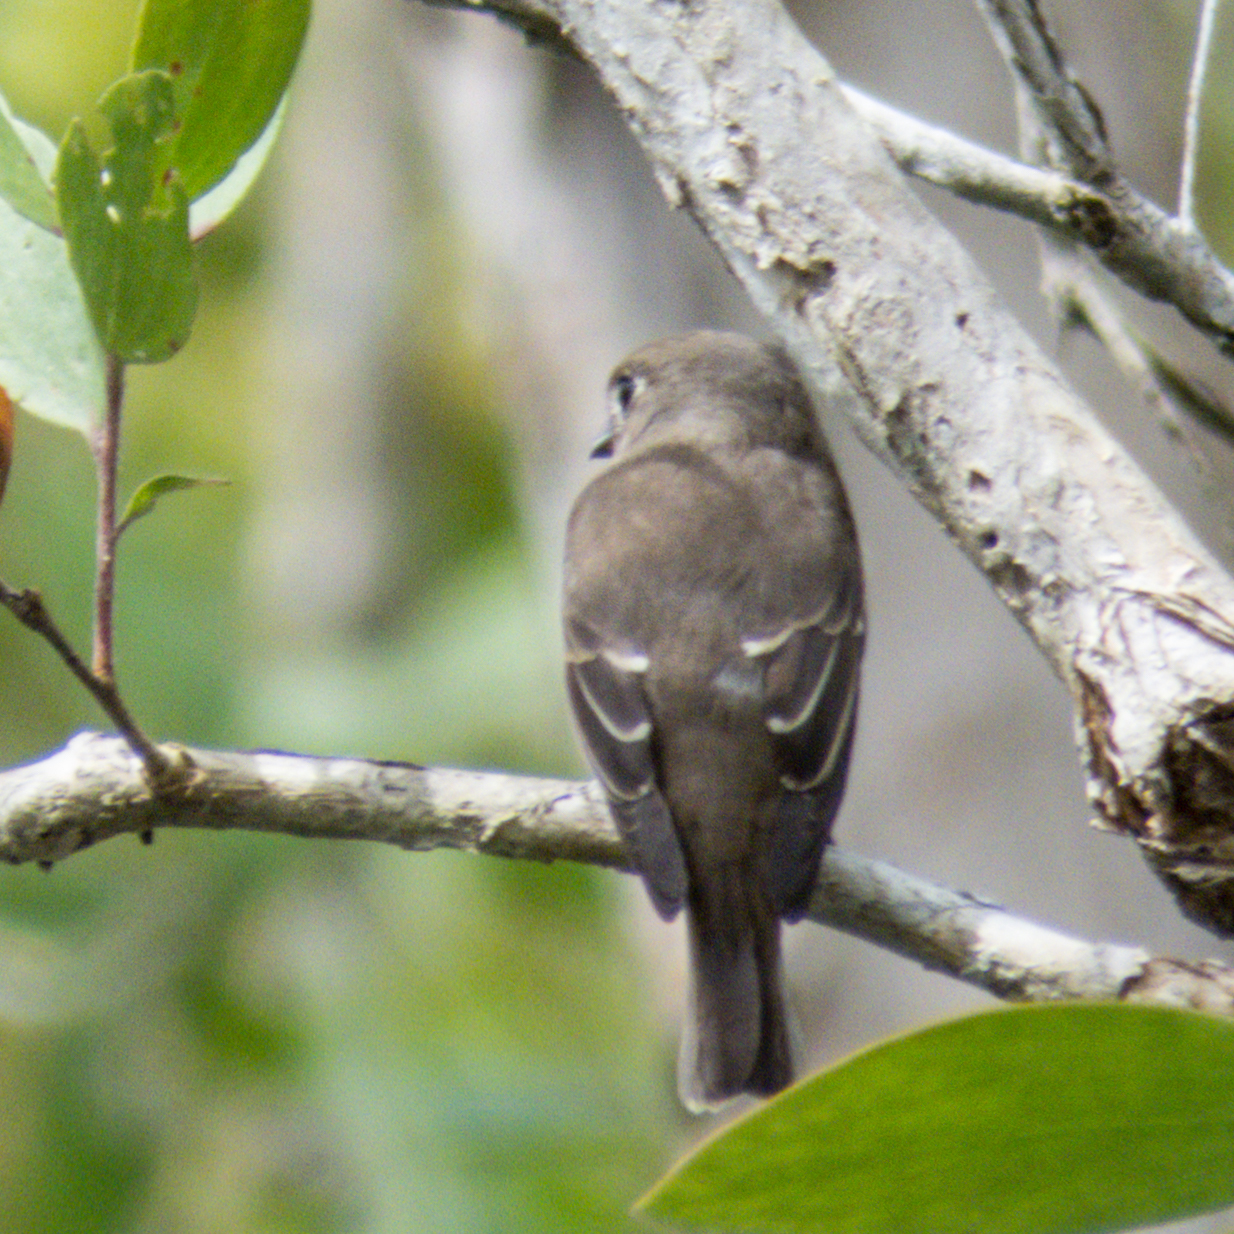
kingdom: Animalia
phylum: Chordata
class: Aves
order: Passeriformes
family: Muscicapidae
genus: Muscicapa
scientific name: Muscicapa latirostris
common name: Asian brown flycatcher
